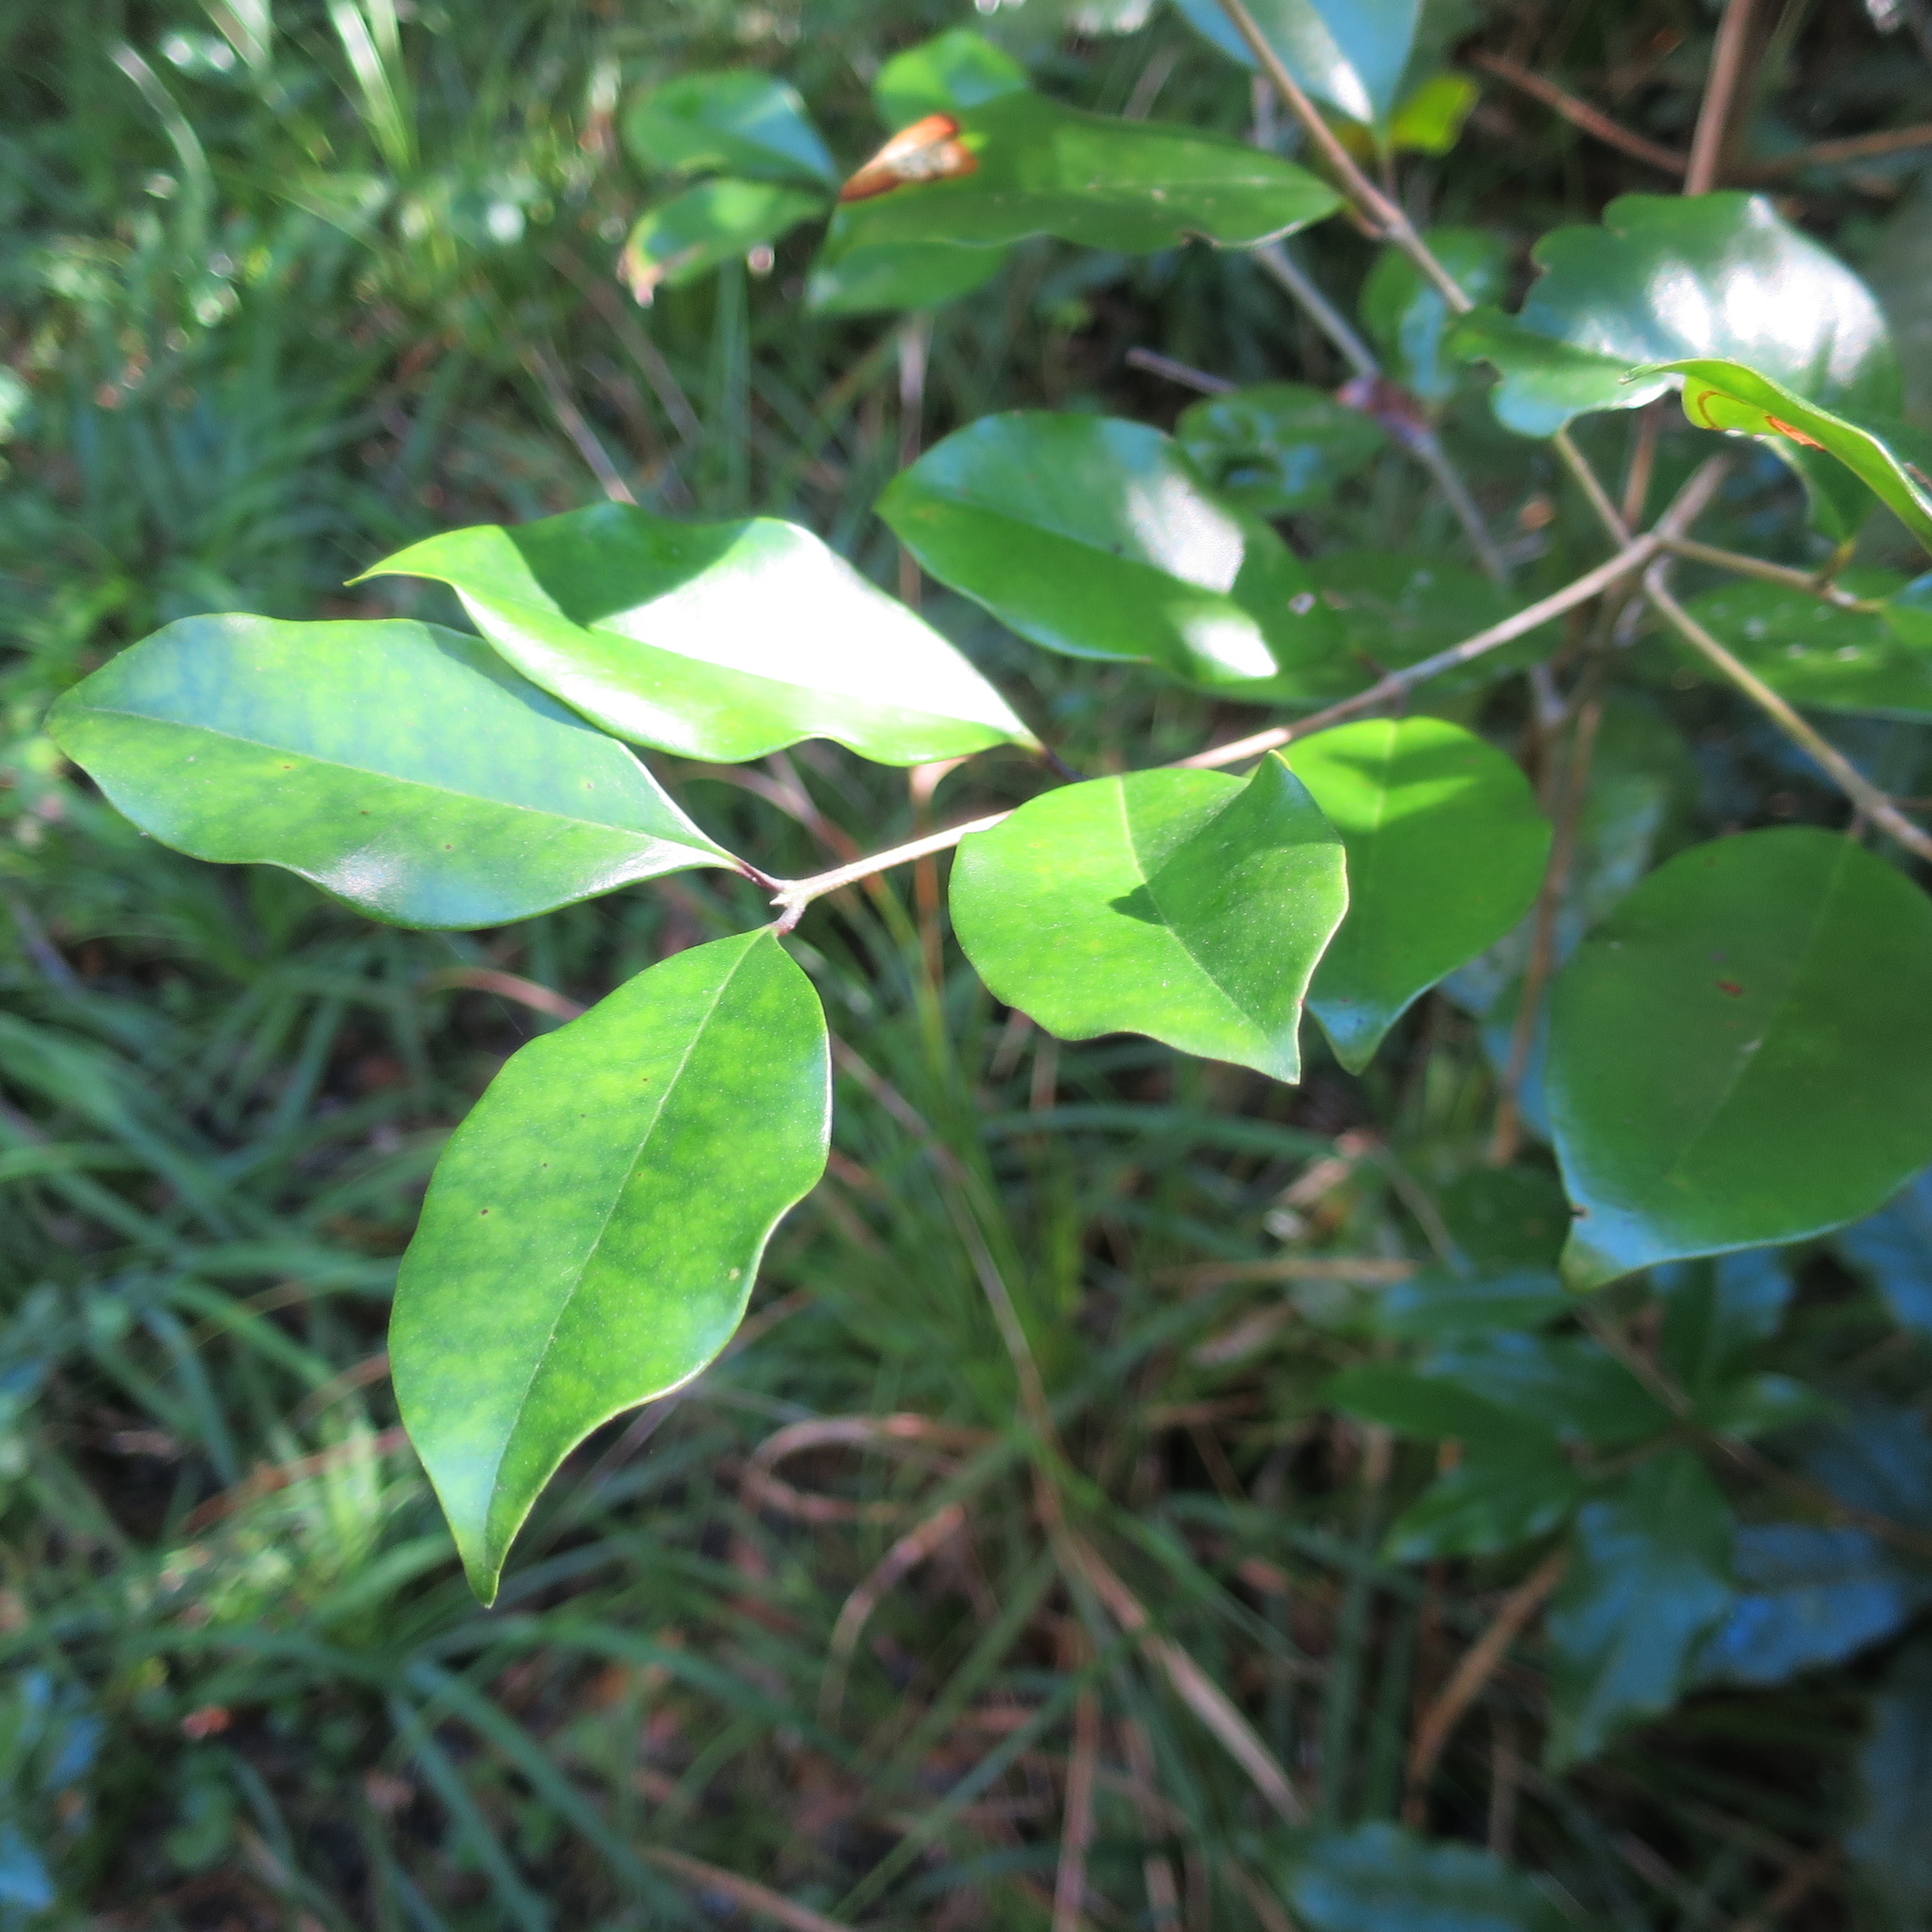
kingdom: Plantae
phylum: Tracheophyta
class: Magnoliopsida
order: Lamiales
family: Oleaceae
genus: Olea
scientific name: Olea capensis
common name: Black ironwood
